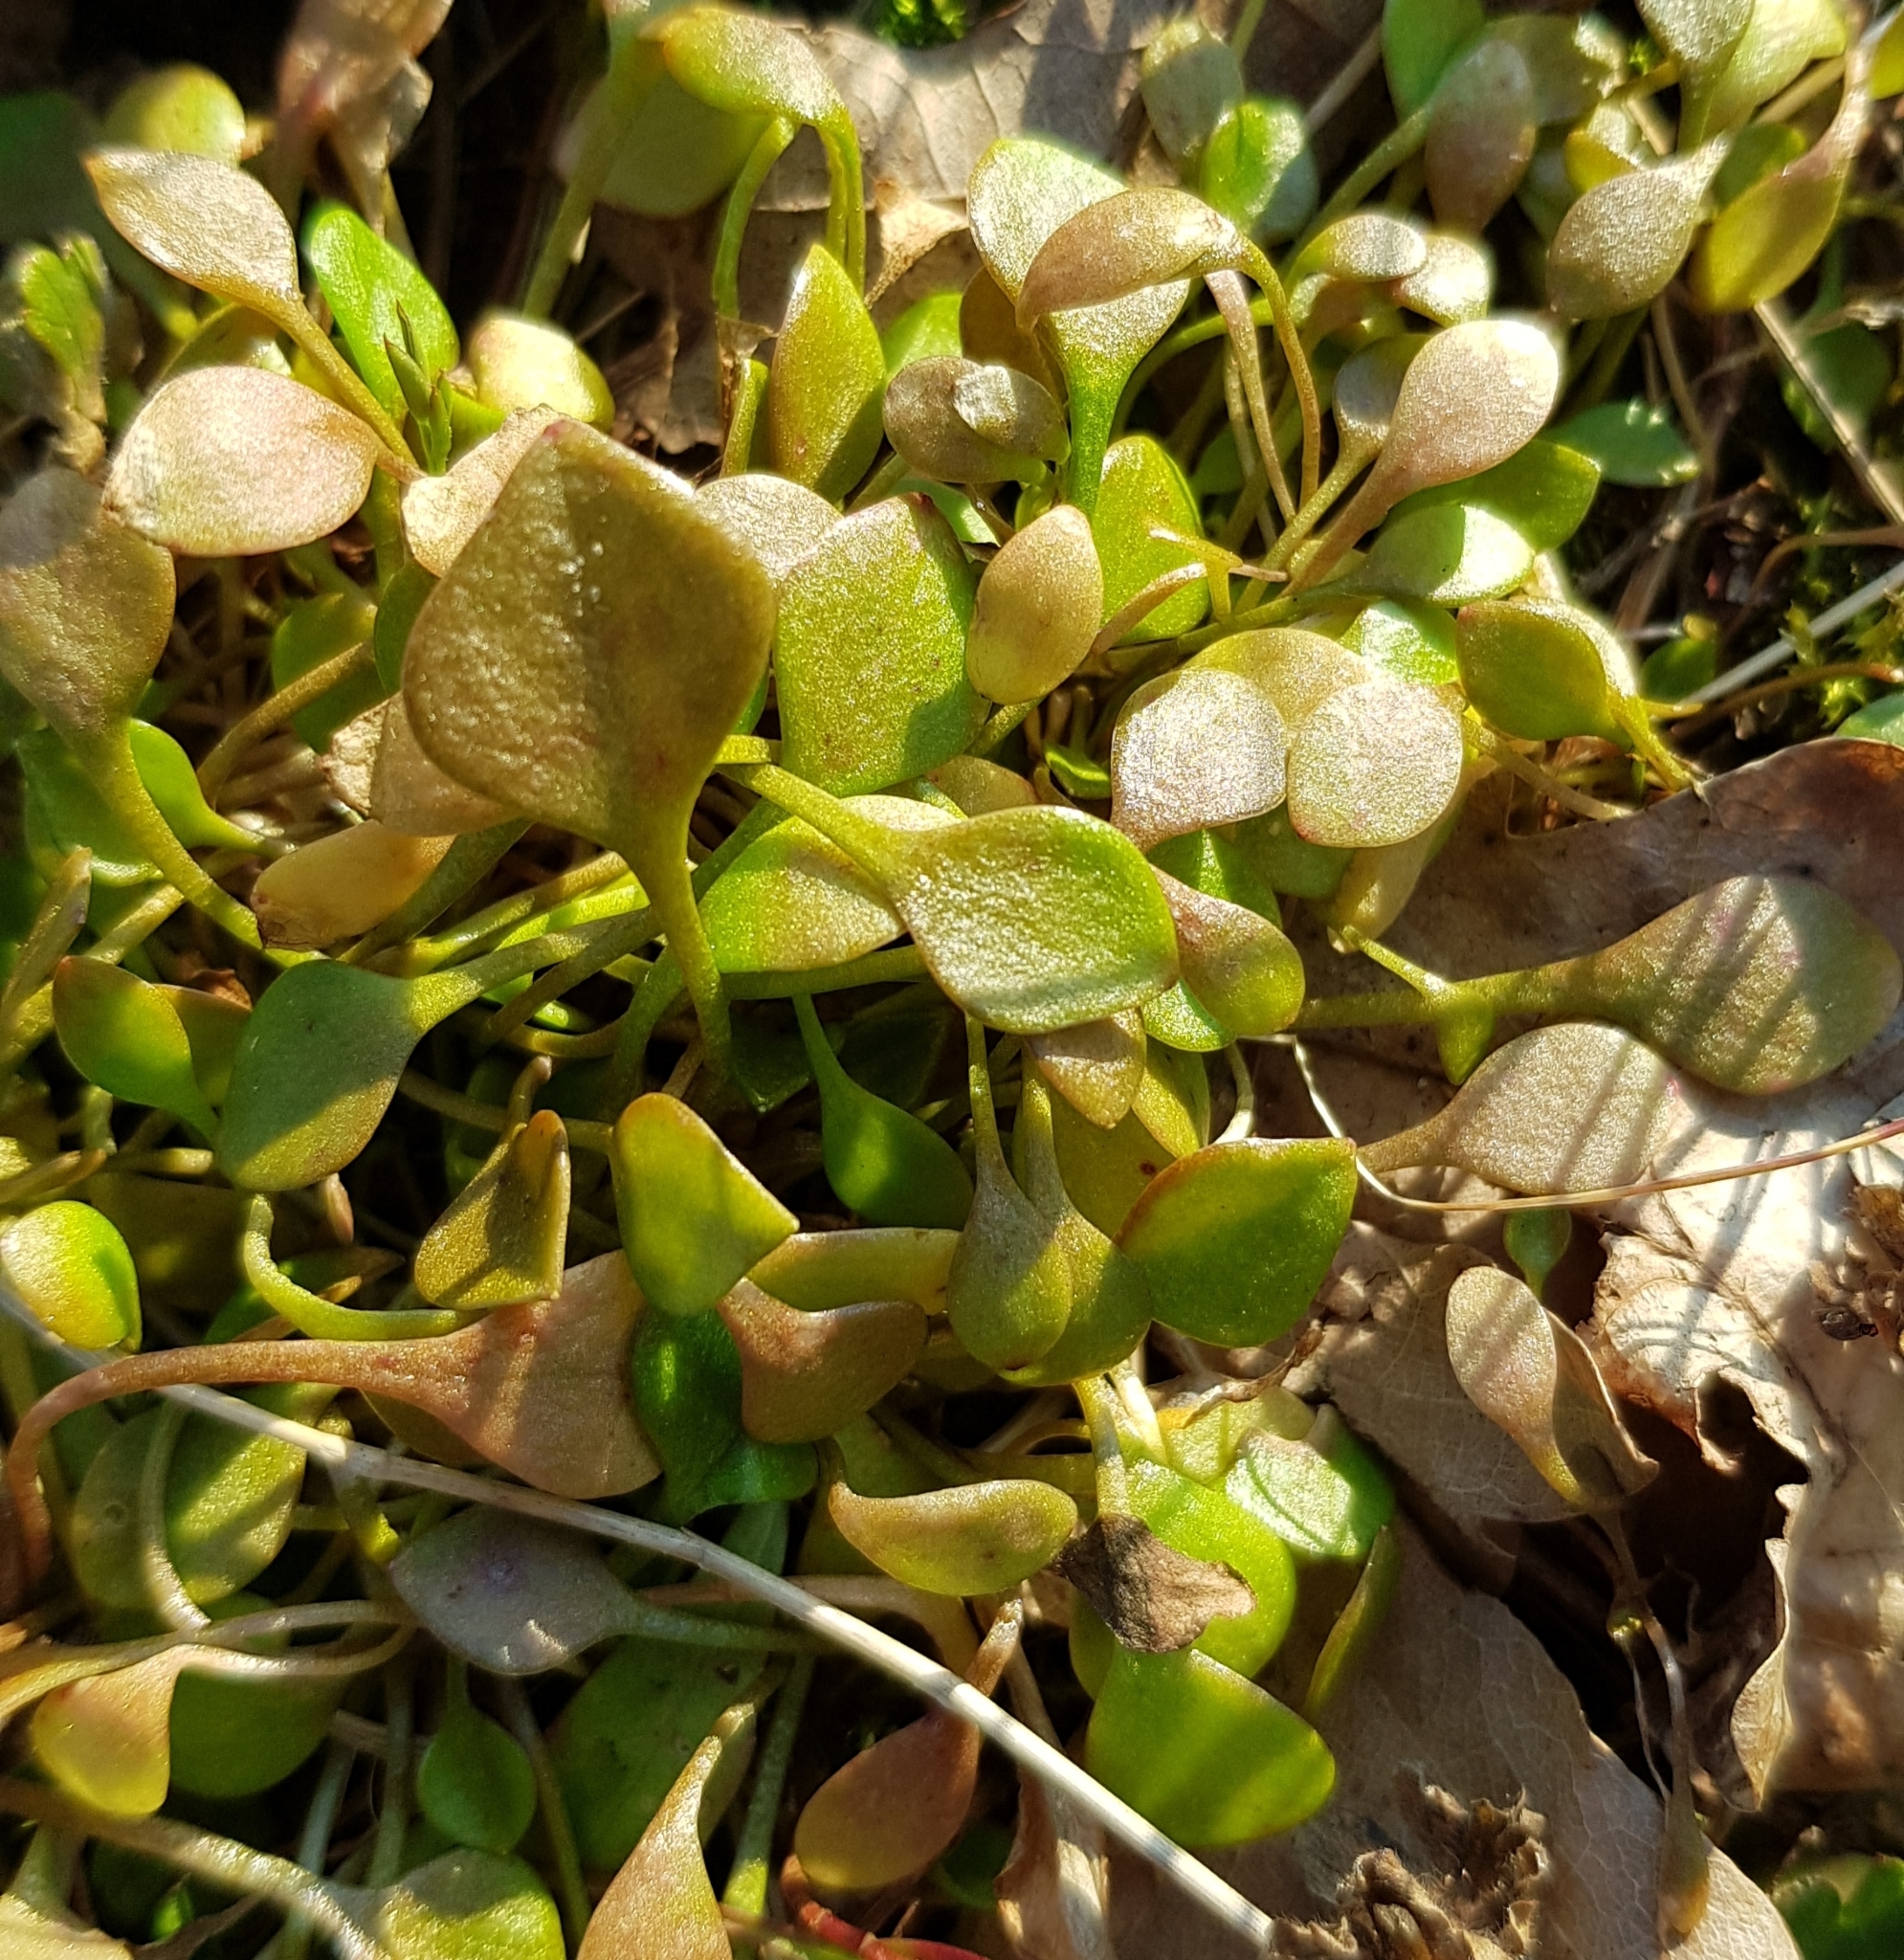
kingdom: Plantae
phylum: Tracheophyta
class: Magnoliopsida
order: Caryophyllales
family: Montiaceae
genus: Claytonia
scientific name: Claytonia perfoliata
